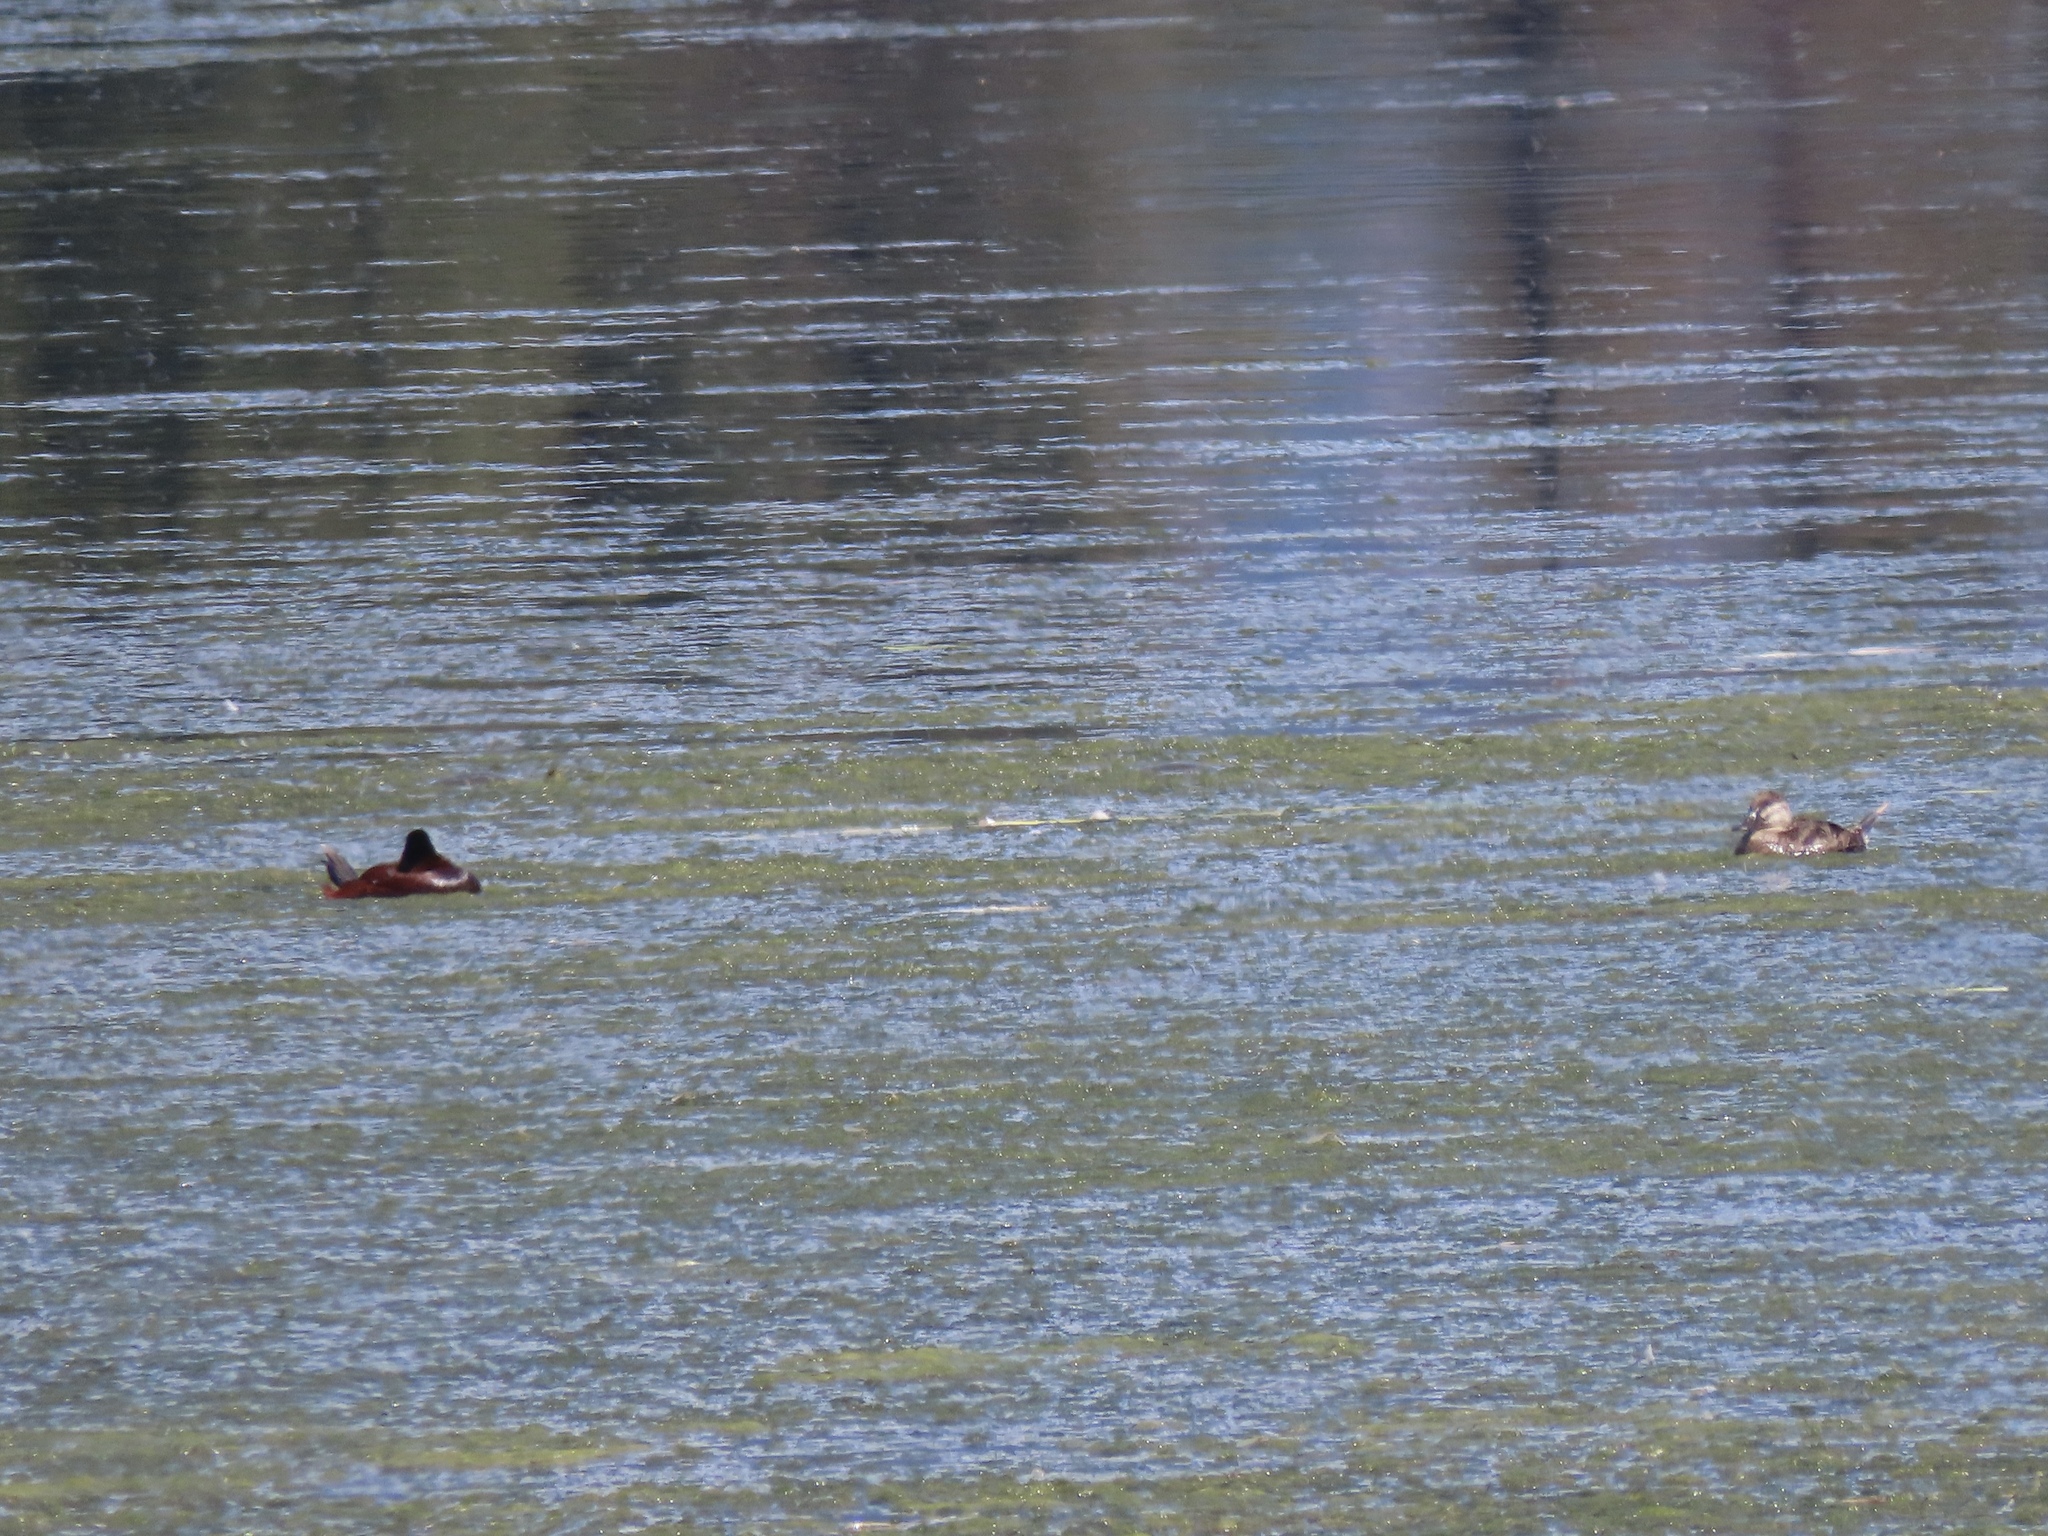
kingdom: Animalia
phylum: Chordata
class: Aves
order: Anseriformes
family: Anatidae
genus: Oxyura
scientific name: Oxyura jamaicensis
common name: Ruddy duck
